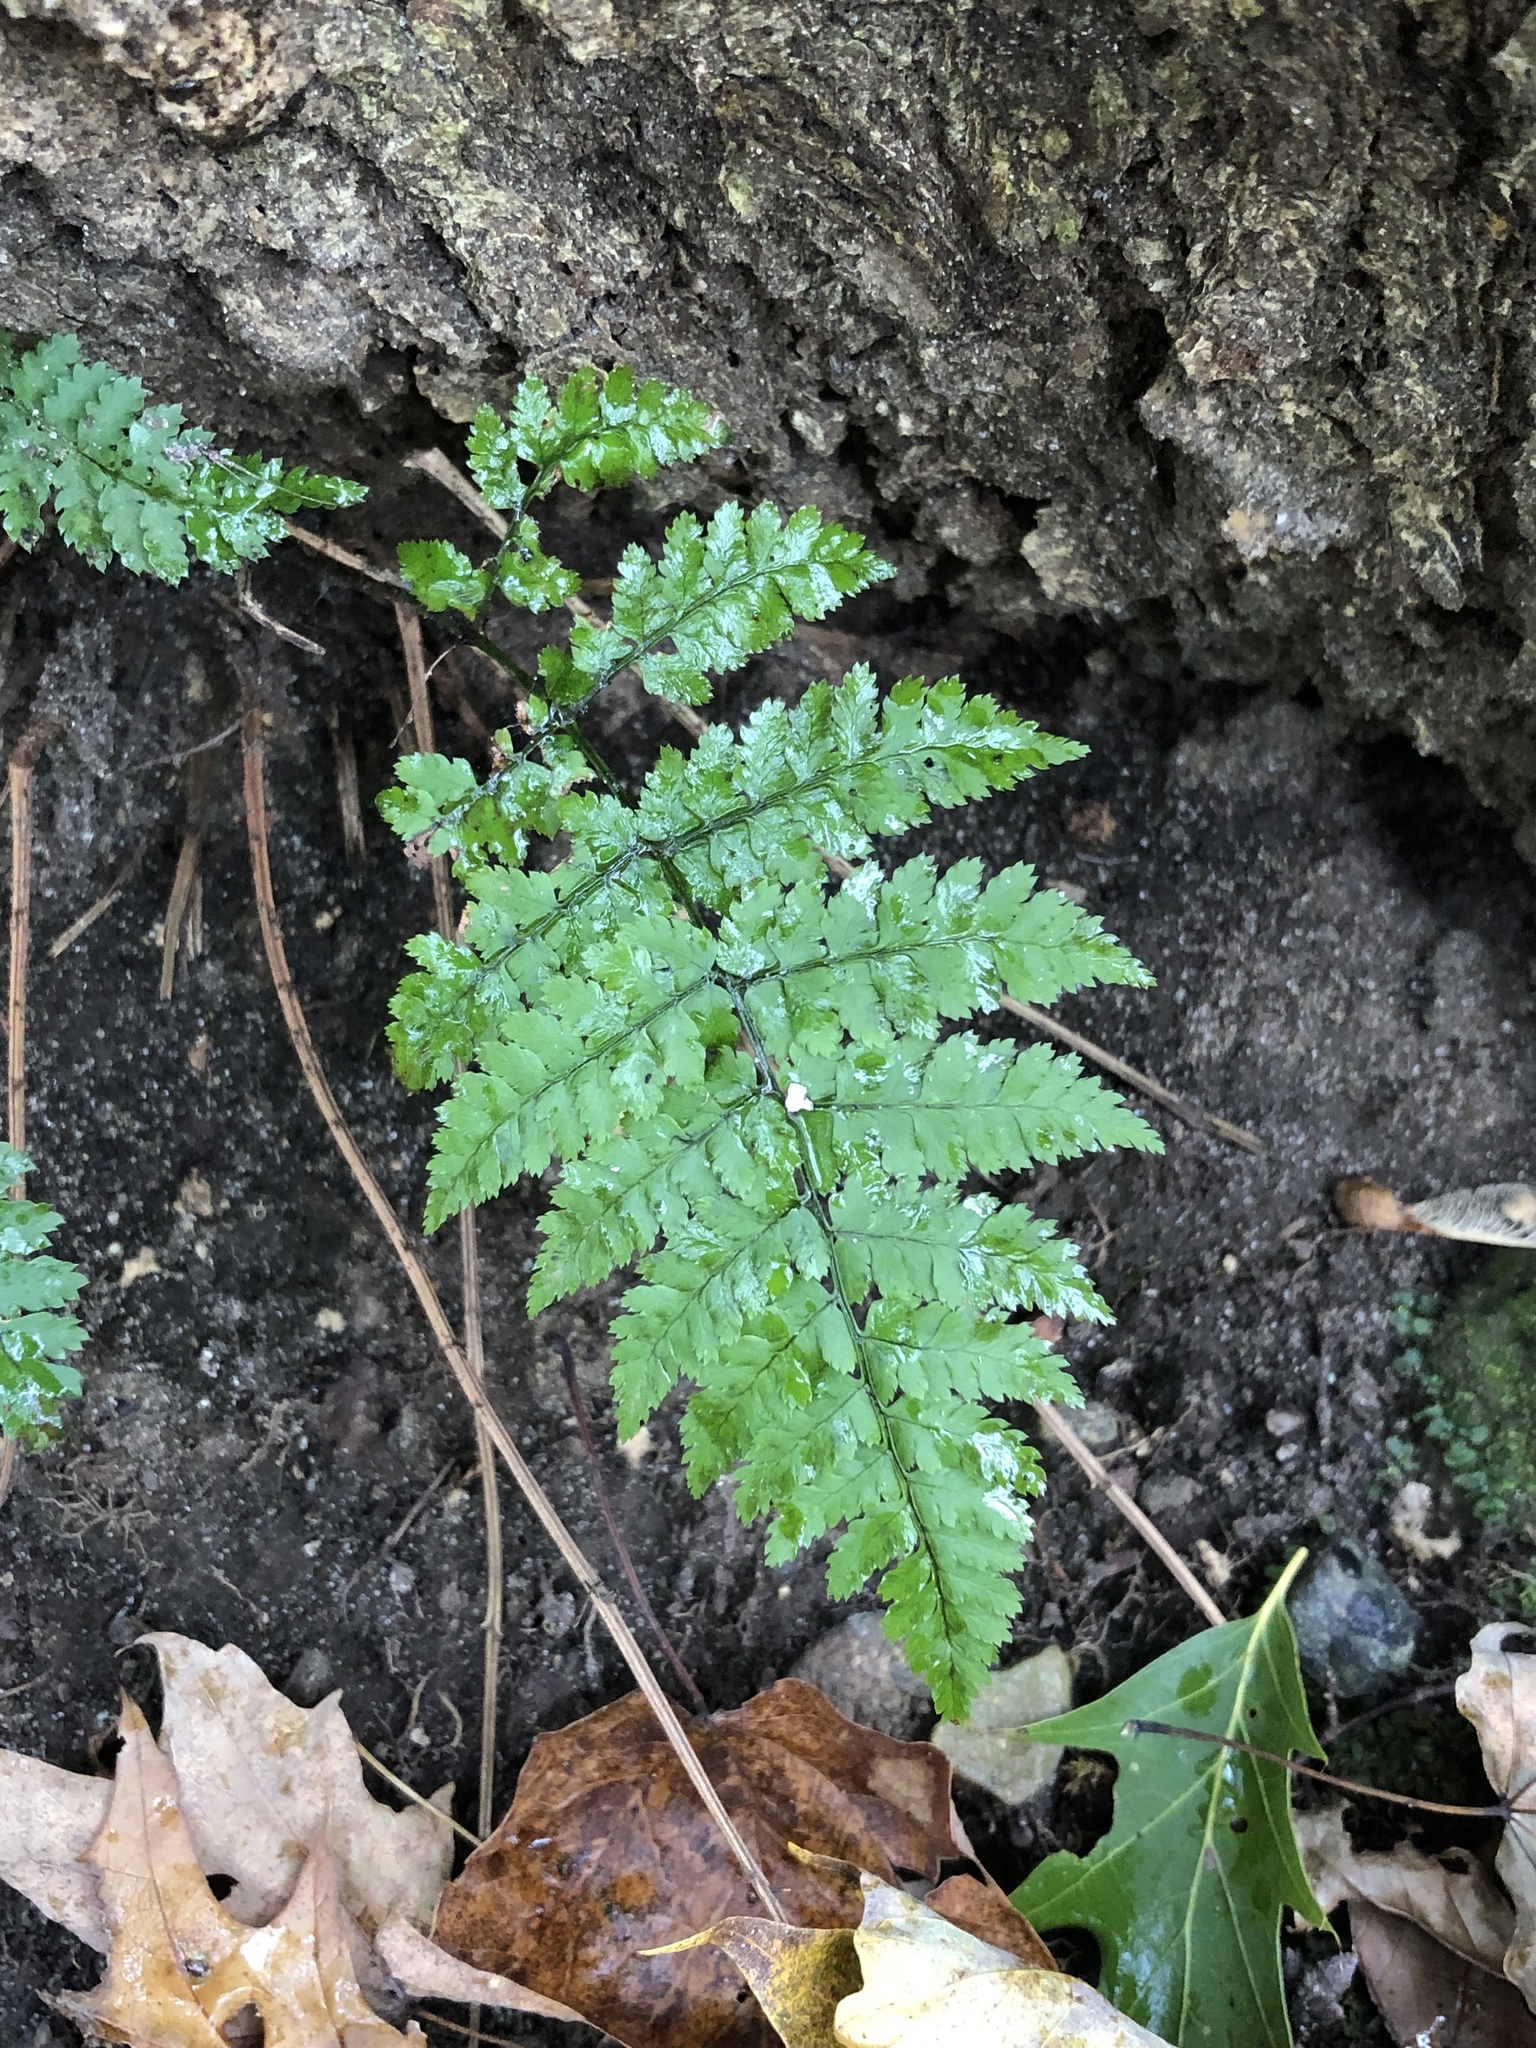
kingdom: Plantae
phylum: Tracheophyta
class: Polypodiopsida
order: Polypodiales
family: Dryopteridaceae
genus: Dryopteris
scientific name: Dryopteris intermedia
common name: Evergreen wood fern
